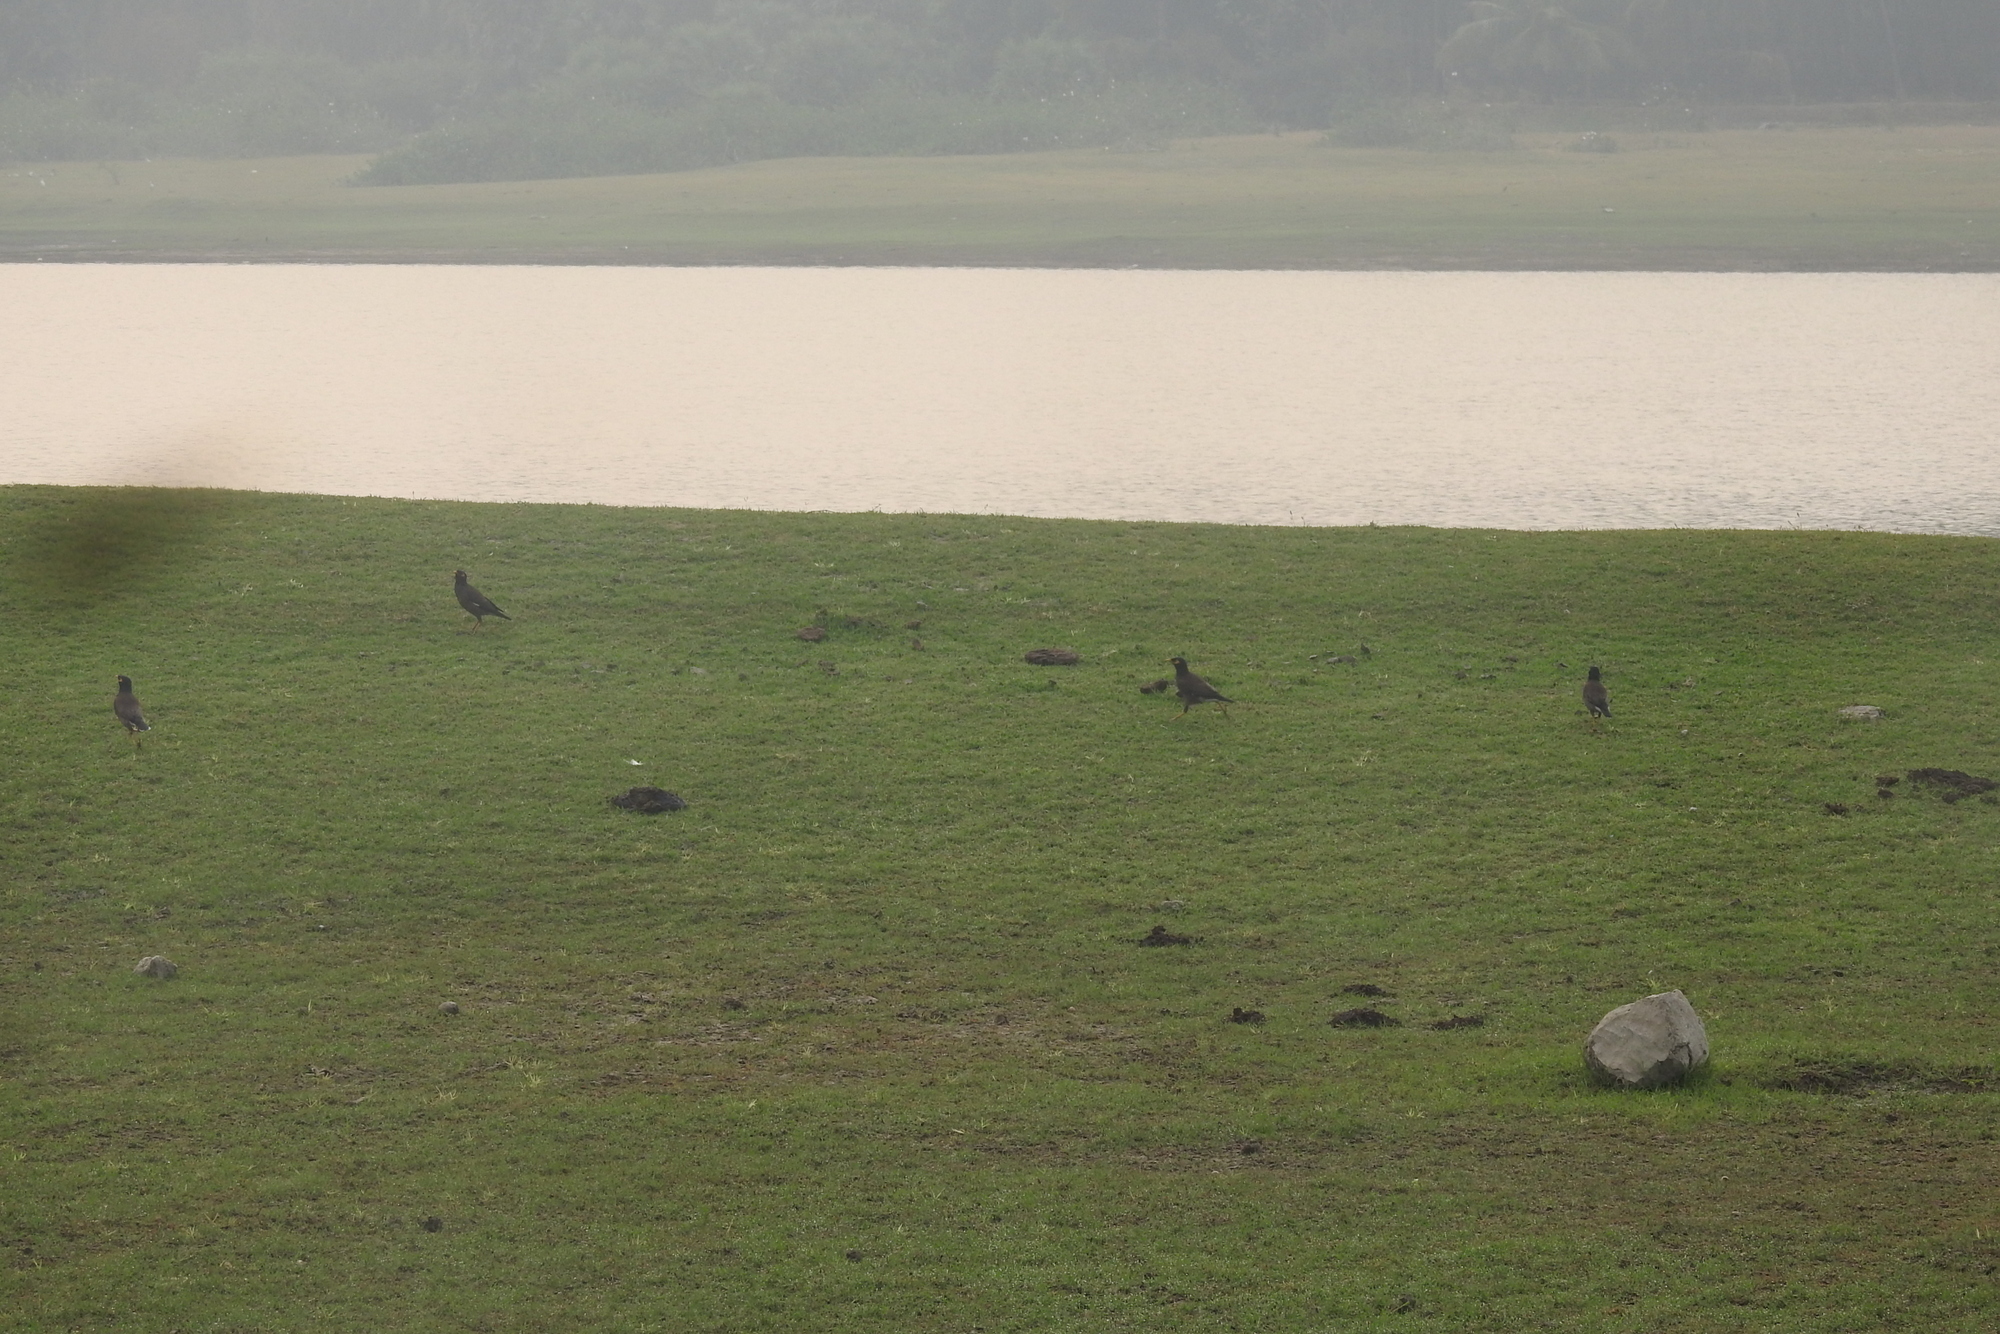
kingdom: Animalia
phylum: Chordata
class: Aves
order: Passeriformes
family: Sturnidae
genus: Acridotheres
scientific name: Acridotheres tristis
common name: Common myna
